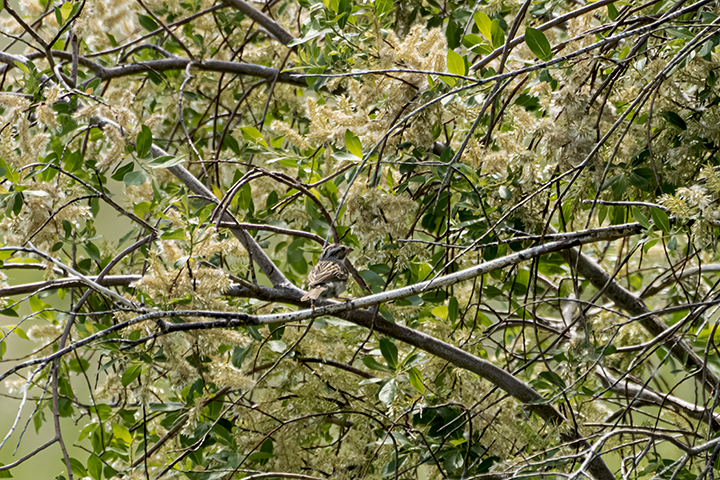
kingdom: Animalia
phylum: Chordata
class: Aves
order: Passeriformes
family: Passerellidae
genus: Chondestes
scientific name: Chondestes grammacus
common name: Lark sparrow
